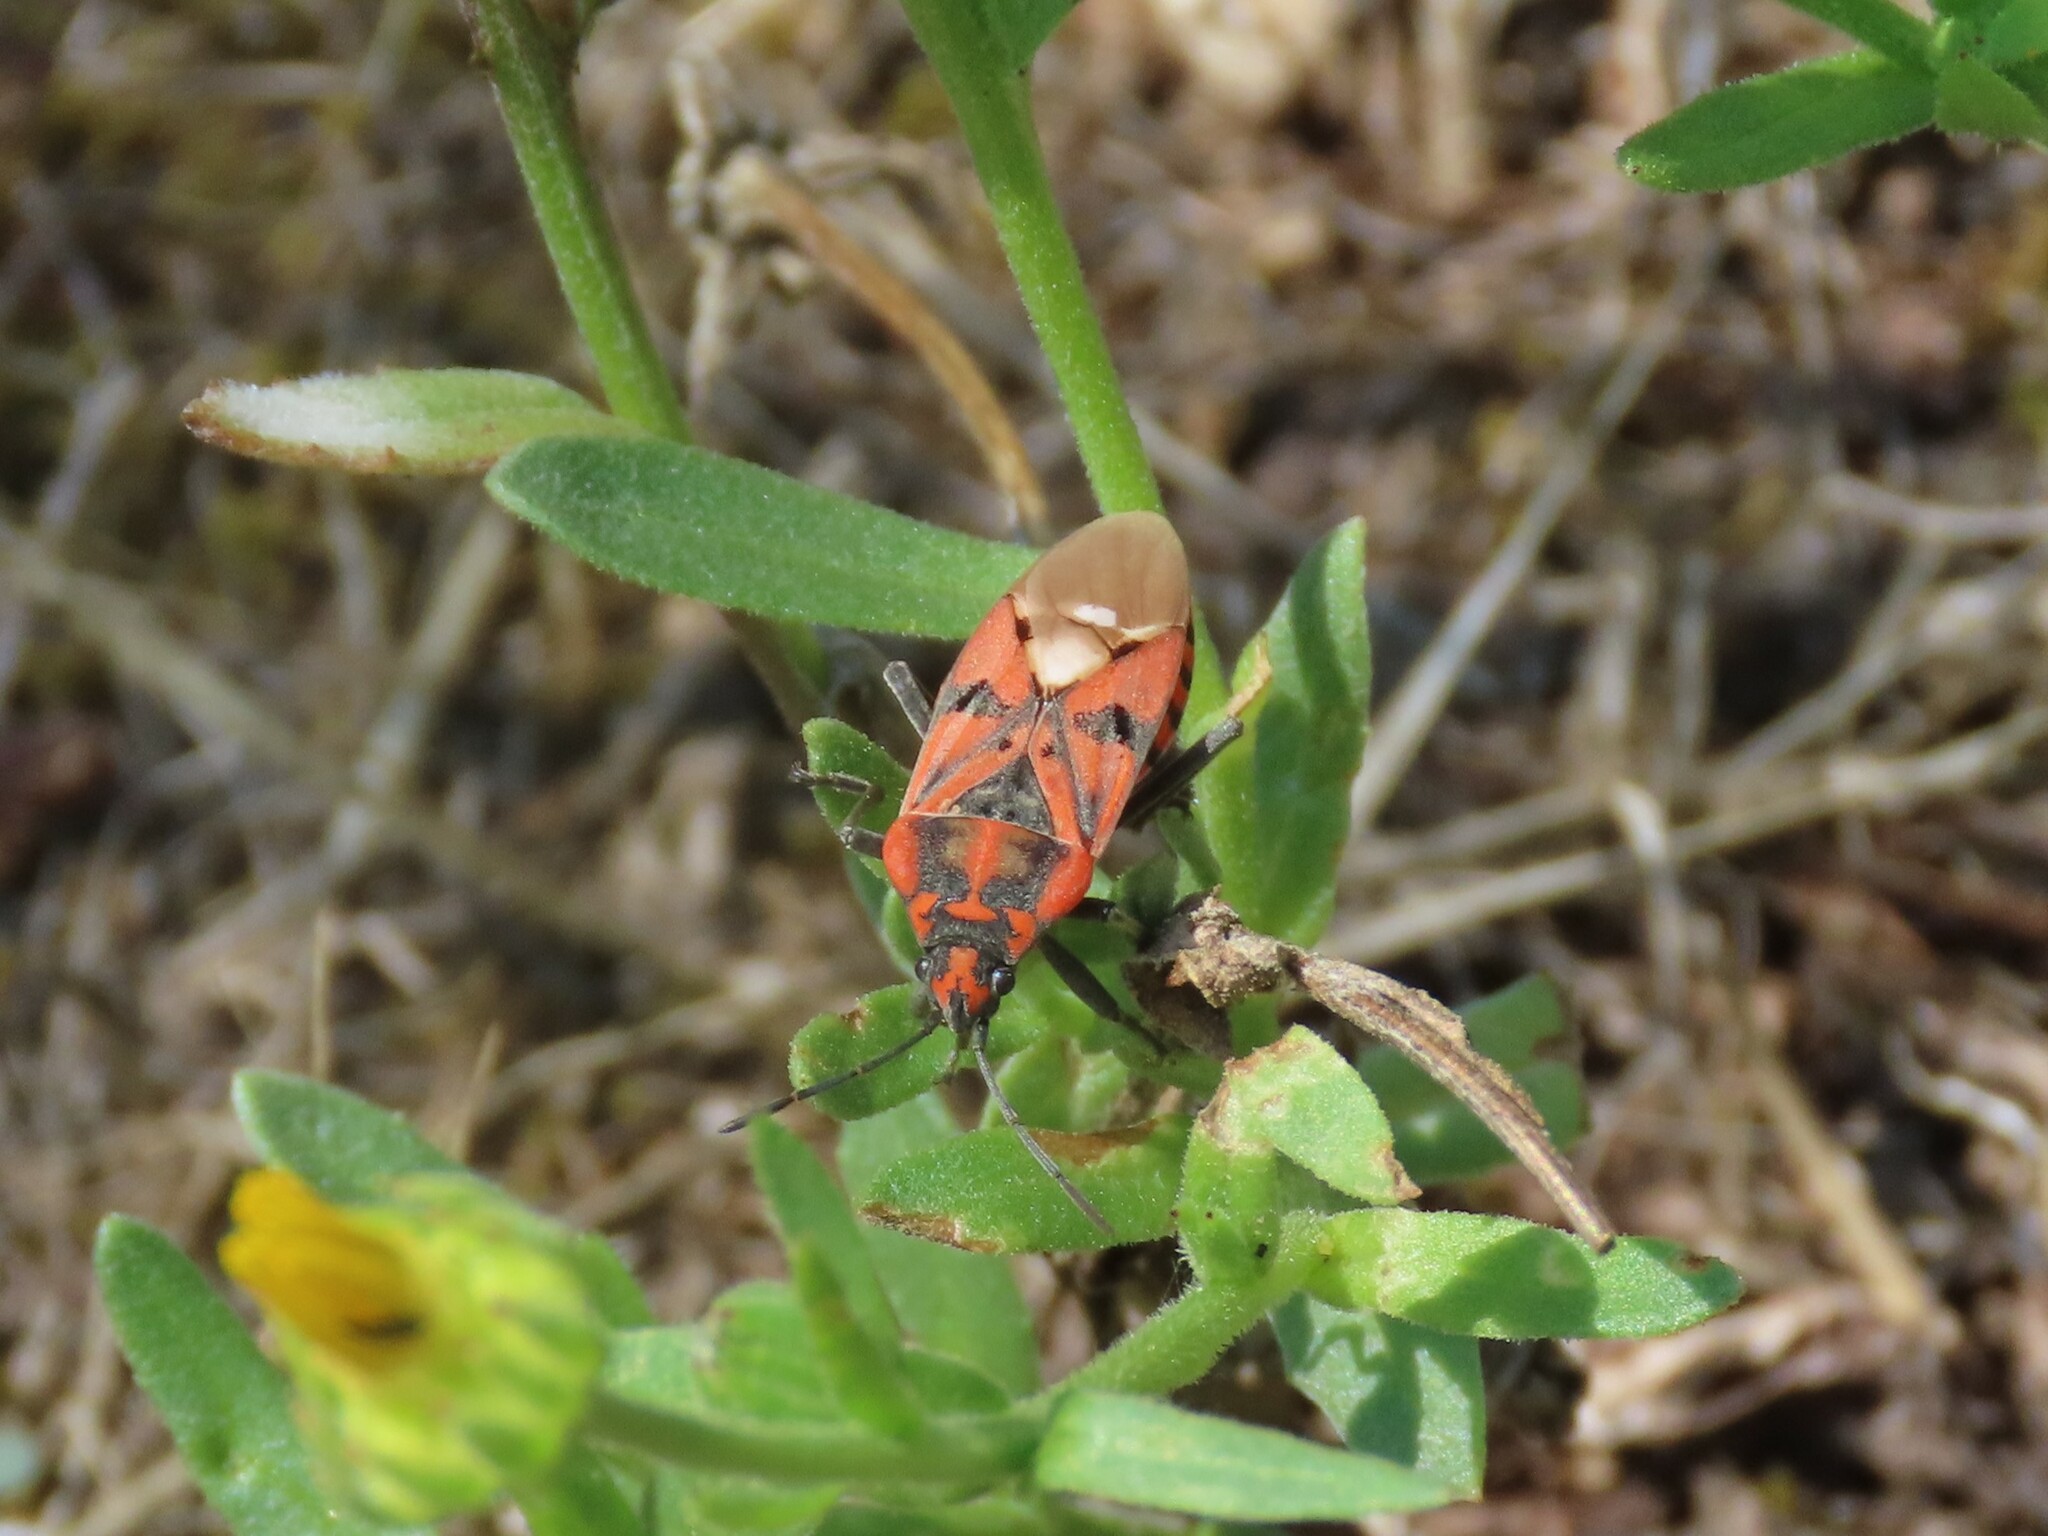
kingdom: Animalia
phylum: Arthropoda
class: Insecta
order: Hemiptera
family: Lygaeidae
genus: Spilostethus
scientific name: Spilostethus pandurus
